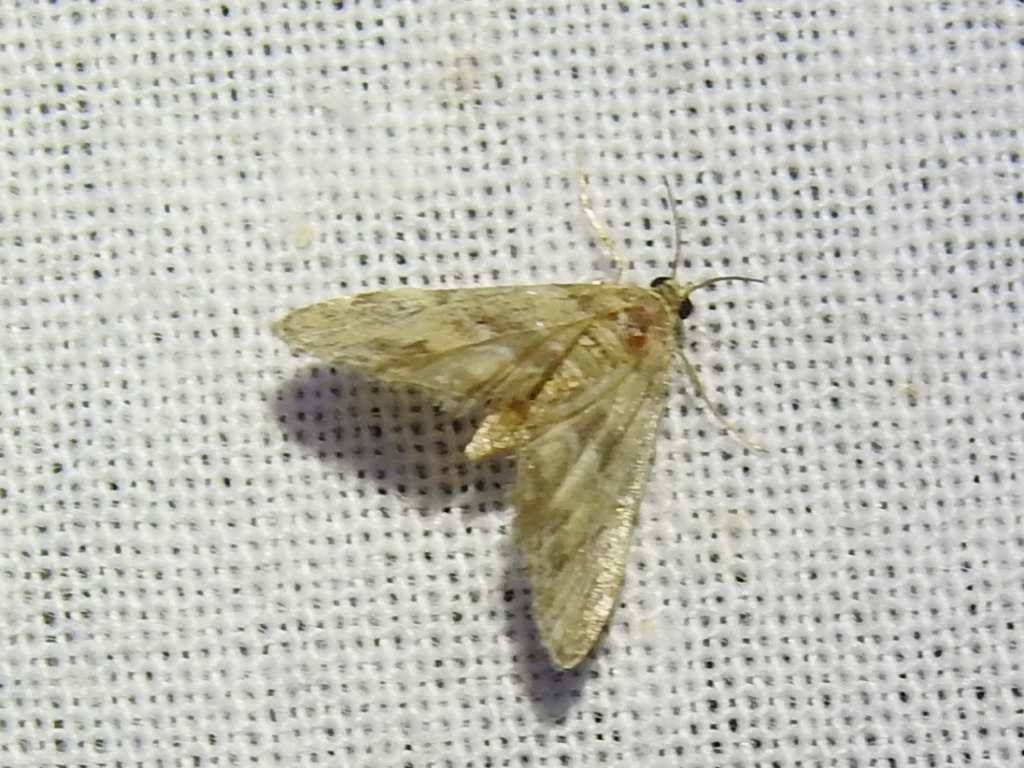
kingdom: Animalia
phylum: Arthropoda
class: Insecta
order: Lepidoptera
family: Crambidae
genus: Elophila
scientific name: Elophila obliteralis
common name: Waterlily leafcutter moth
